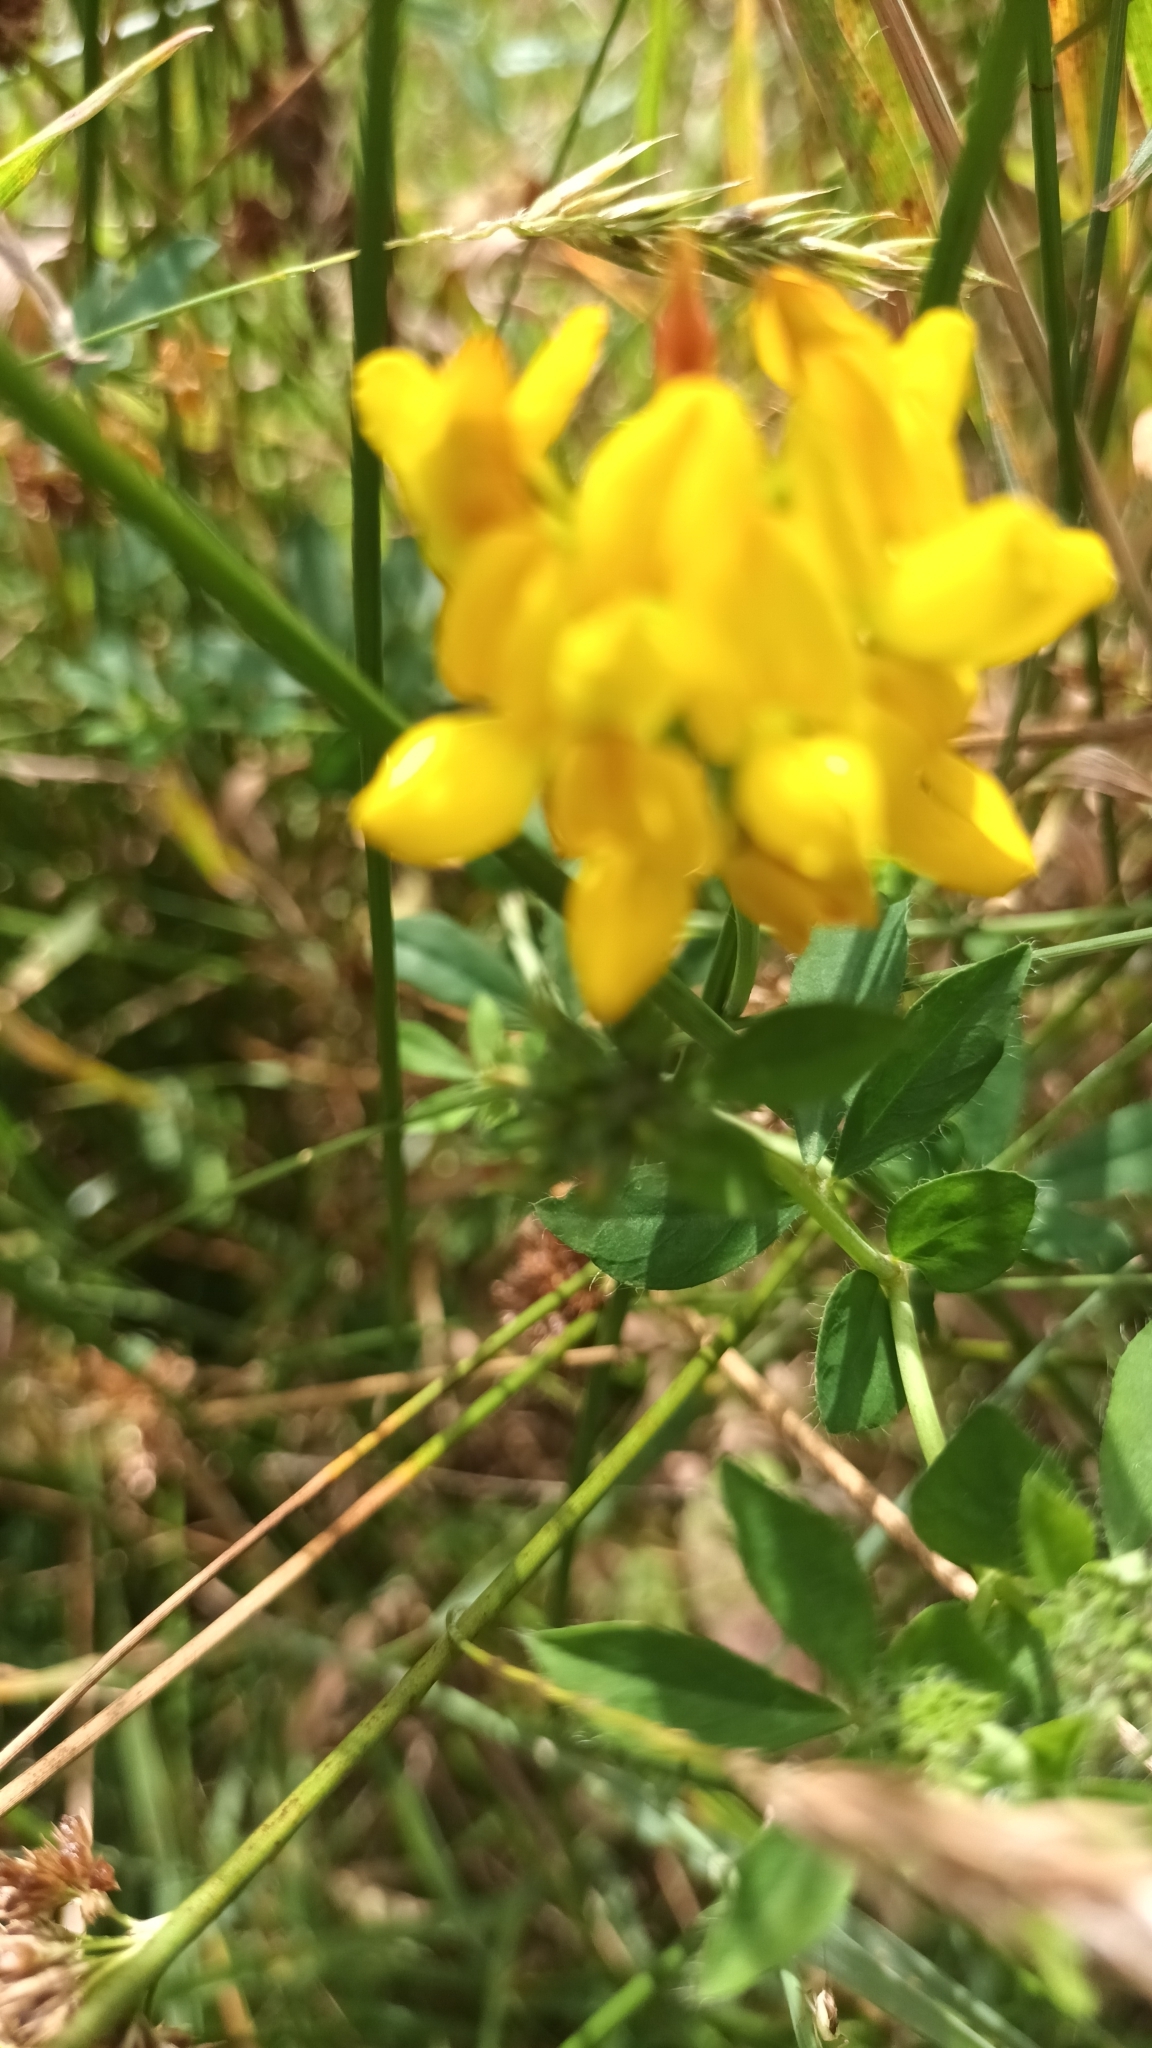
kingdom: Plantae
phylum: Tracheophyta
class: Magnoliopsida
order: Fabales
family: Fabaceae
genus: Lotus
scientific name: Lotus pedunculatus
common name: Greater birdsfoot-trefoil
